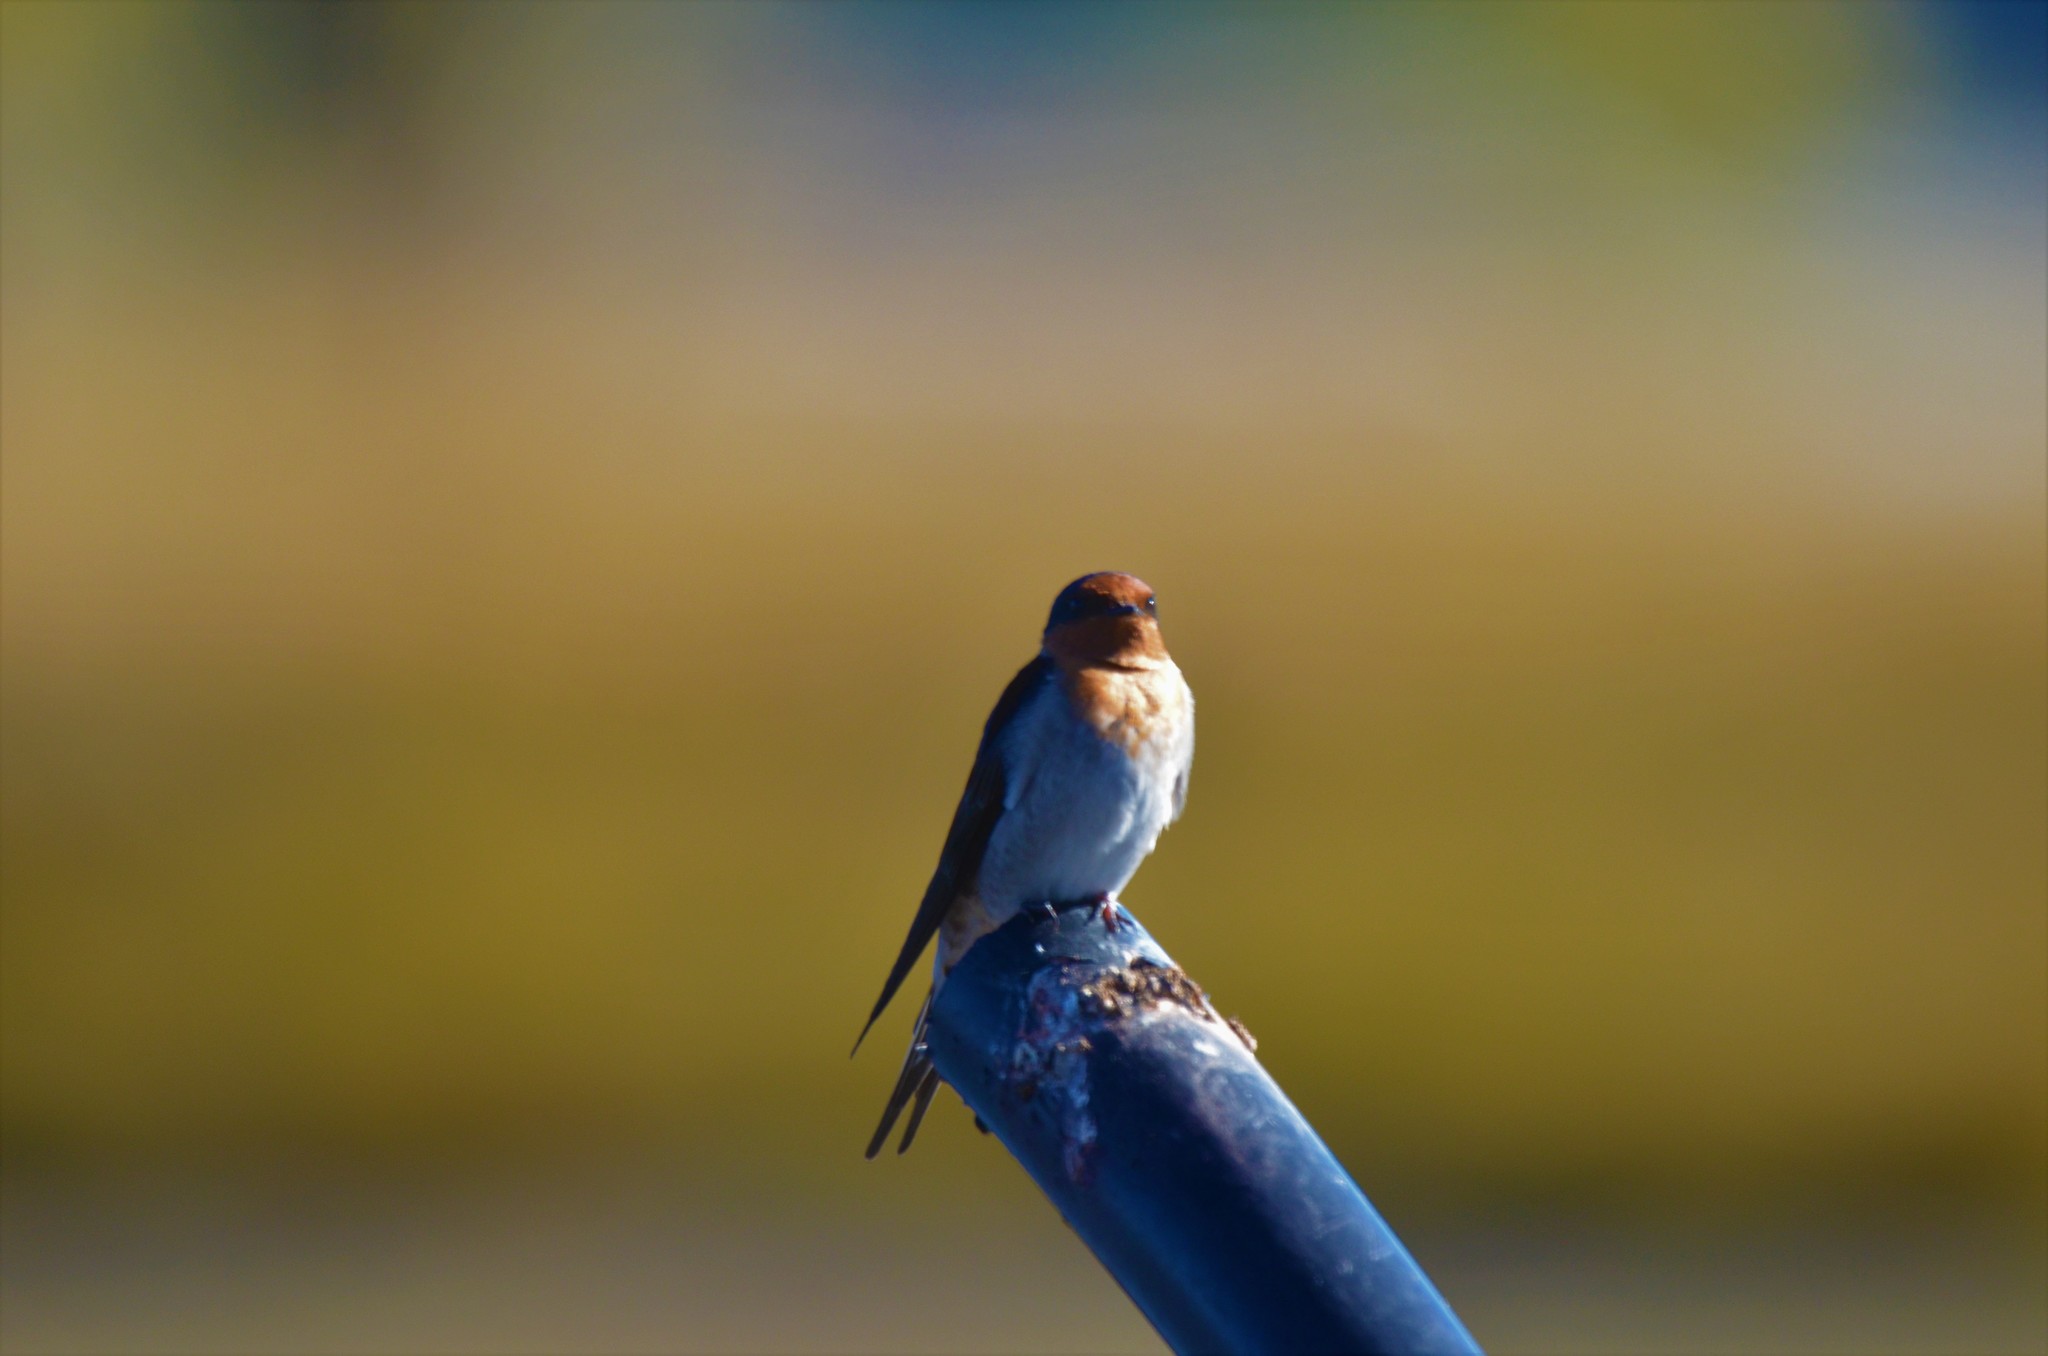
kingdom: Animalia
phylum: Chordata
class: Aves
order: Passeriformes
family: Hirundinidae
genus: Hirundo
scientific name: Hirundo neoxena
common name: Welcome swallow
